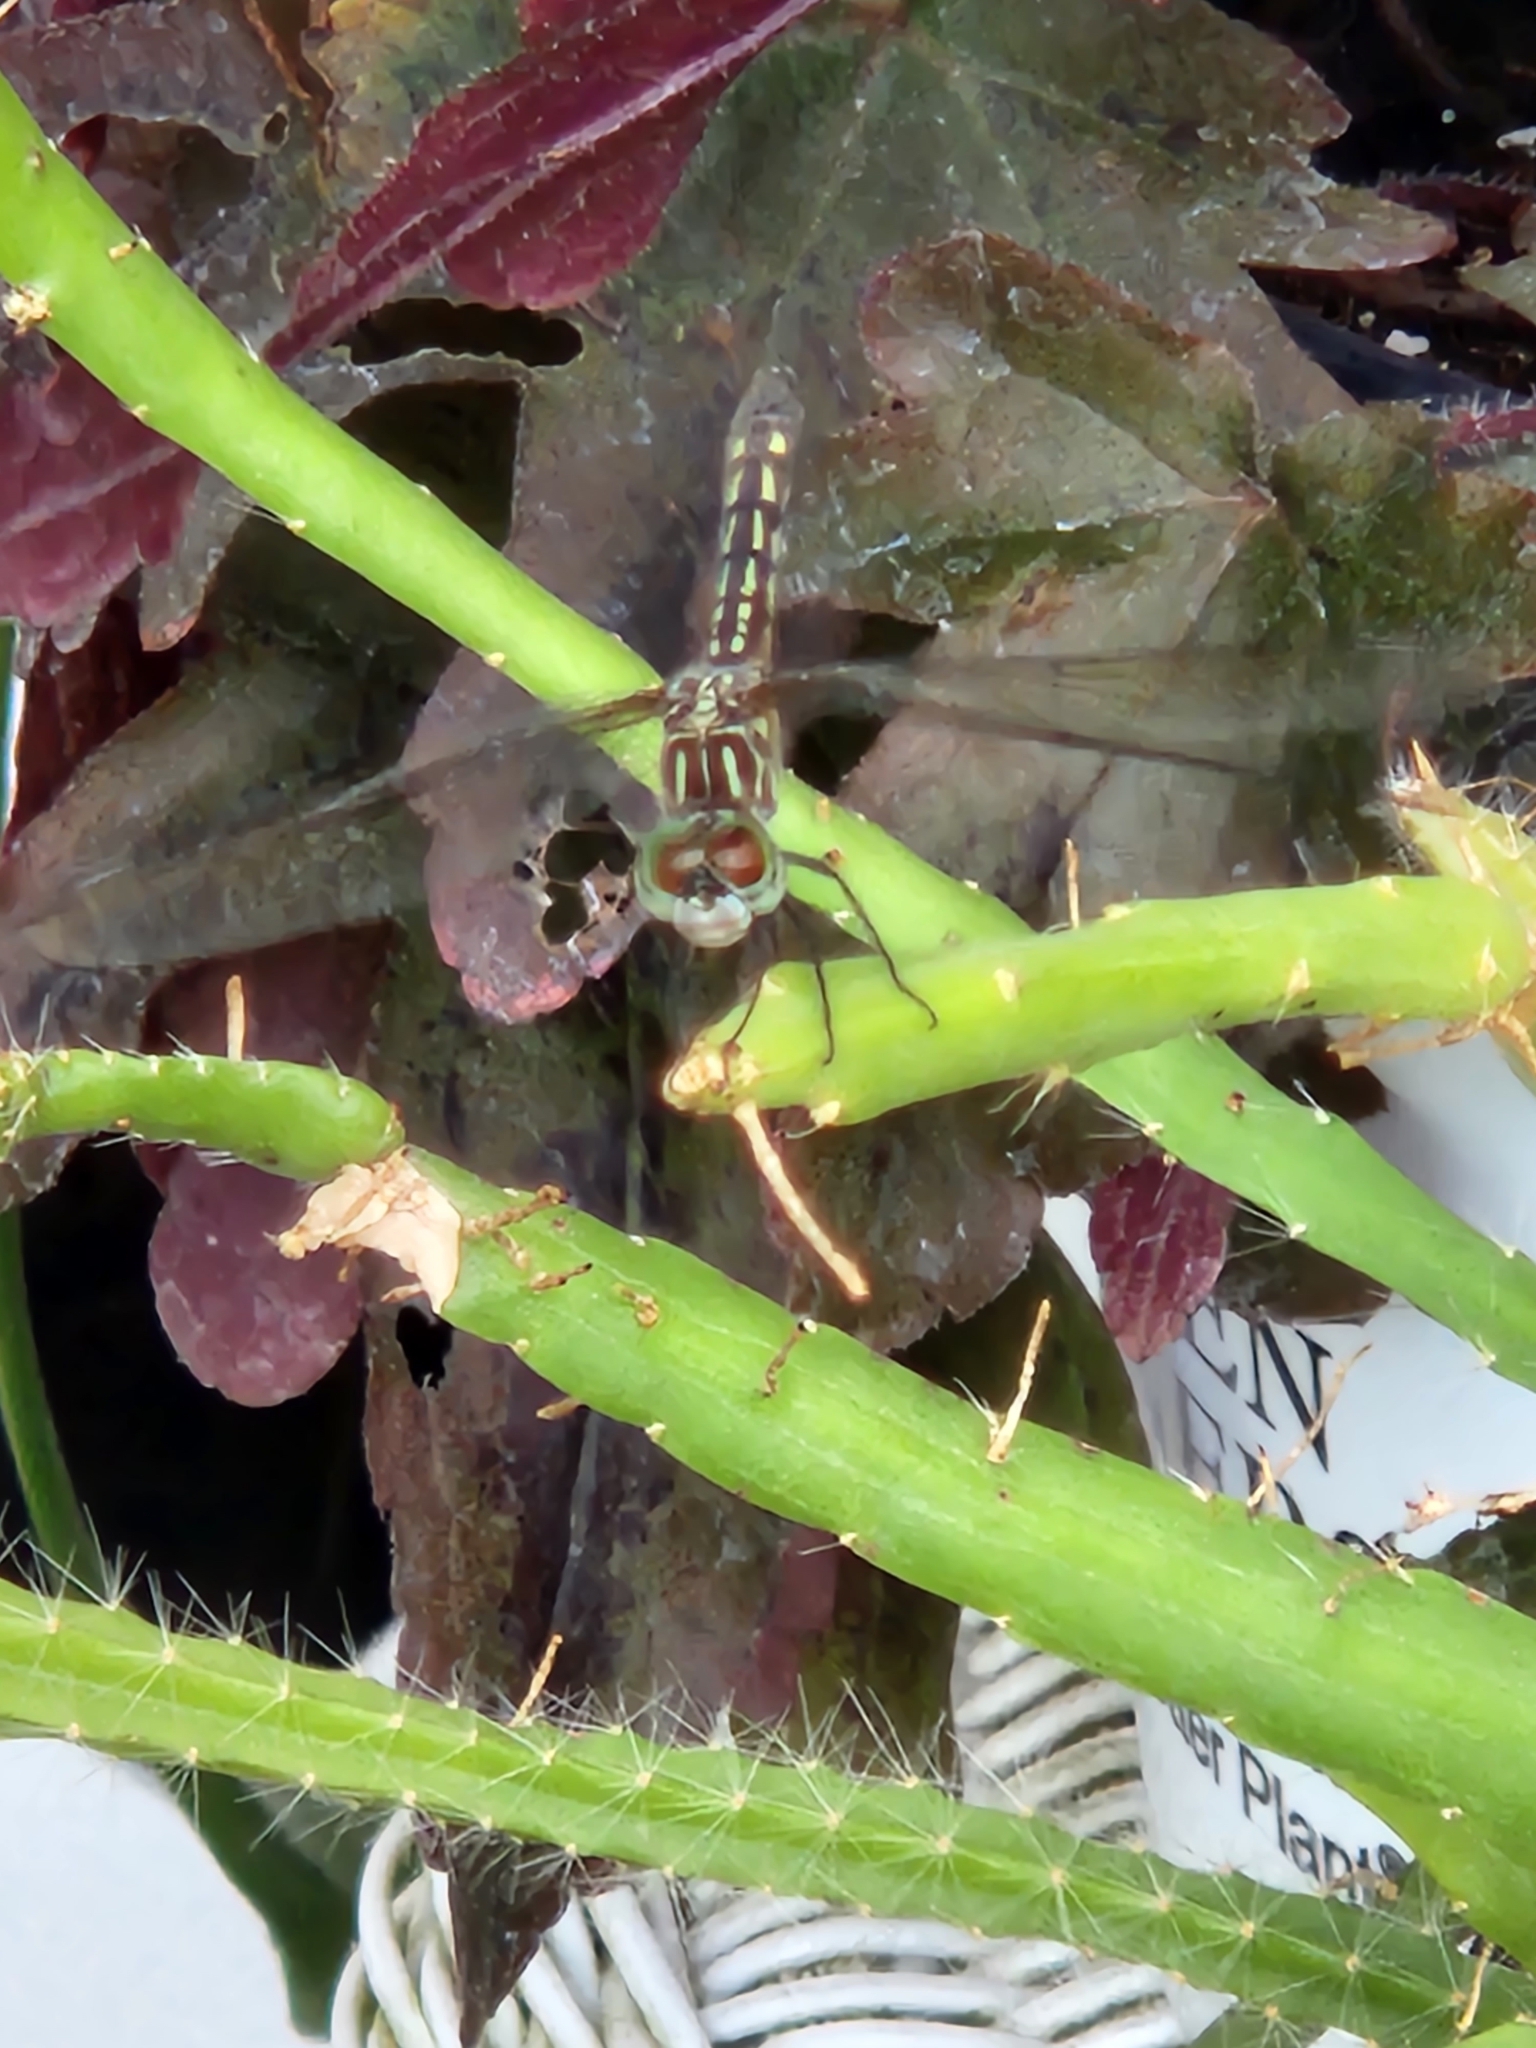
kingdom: Animalia
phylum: Arthropoda
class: Insecta
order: Odonata
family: Libellulidae
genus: Pachydiplax
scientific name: Pachydiplax longipennis
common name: Blue dasher
